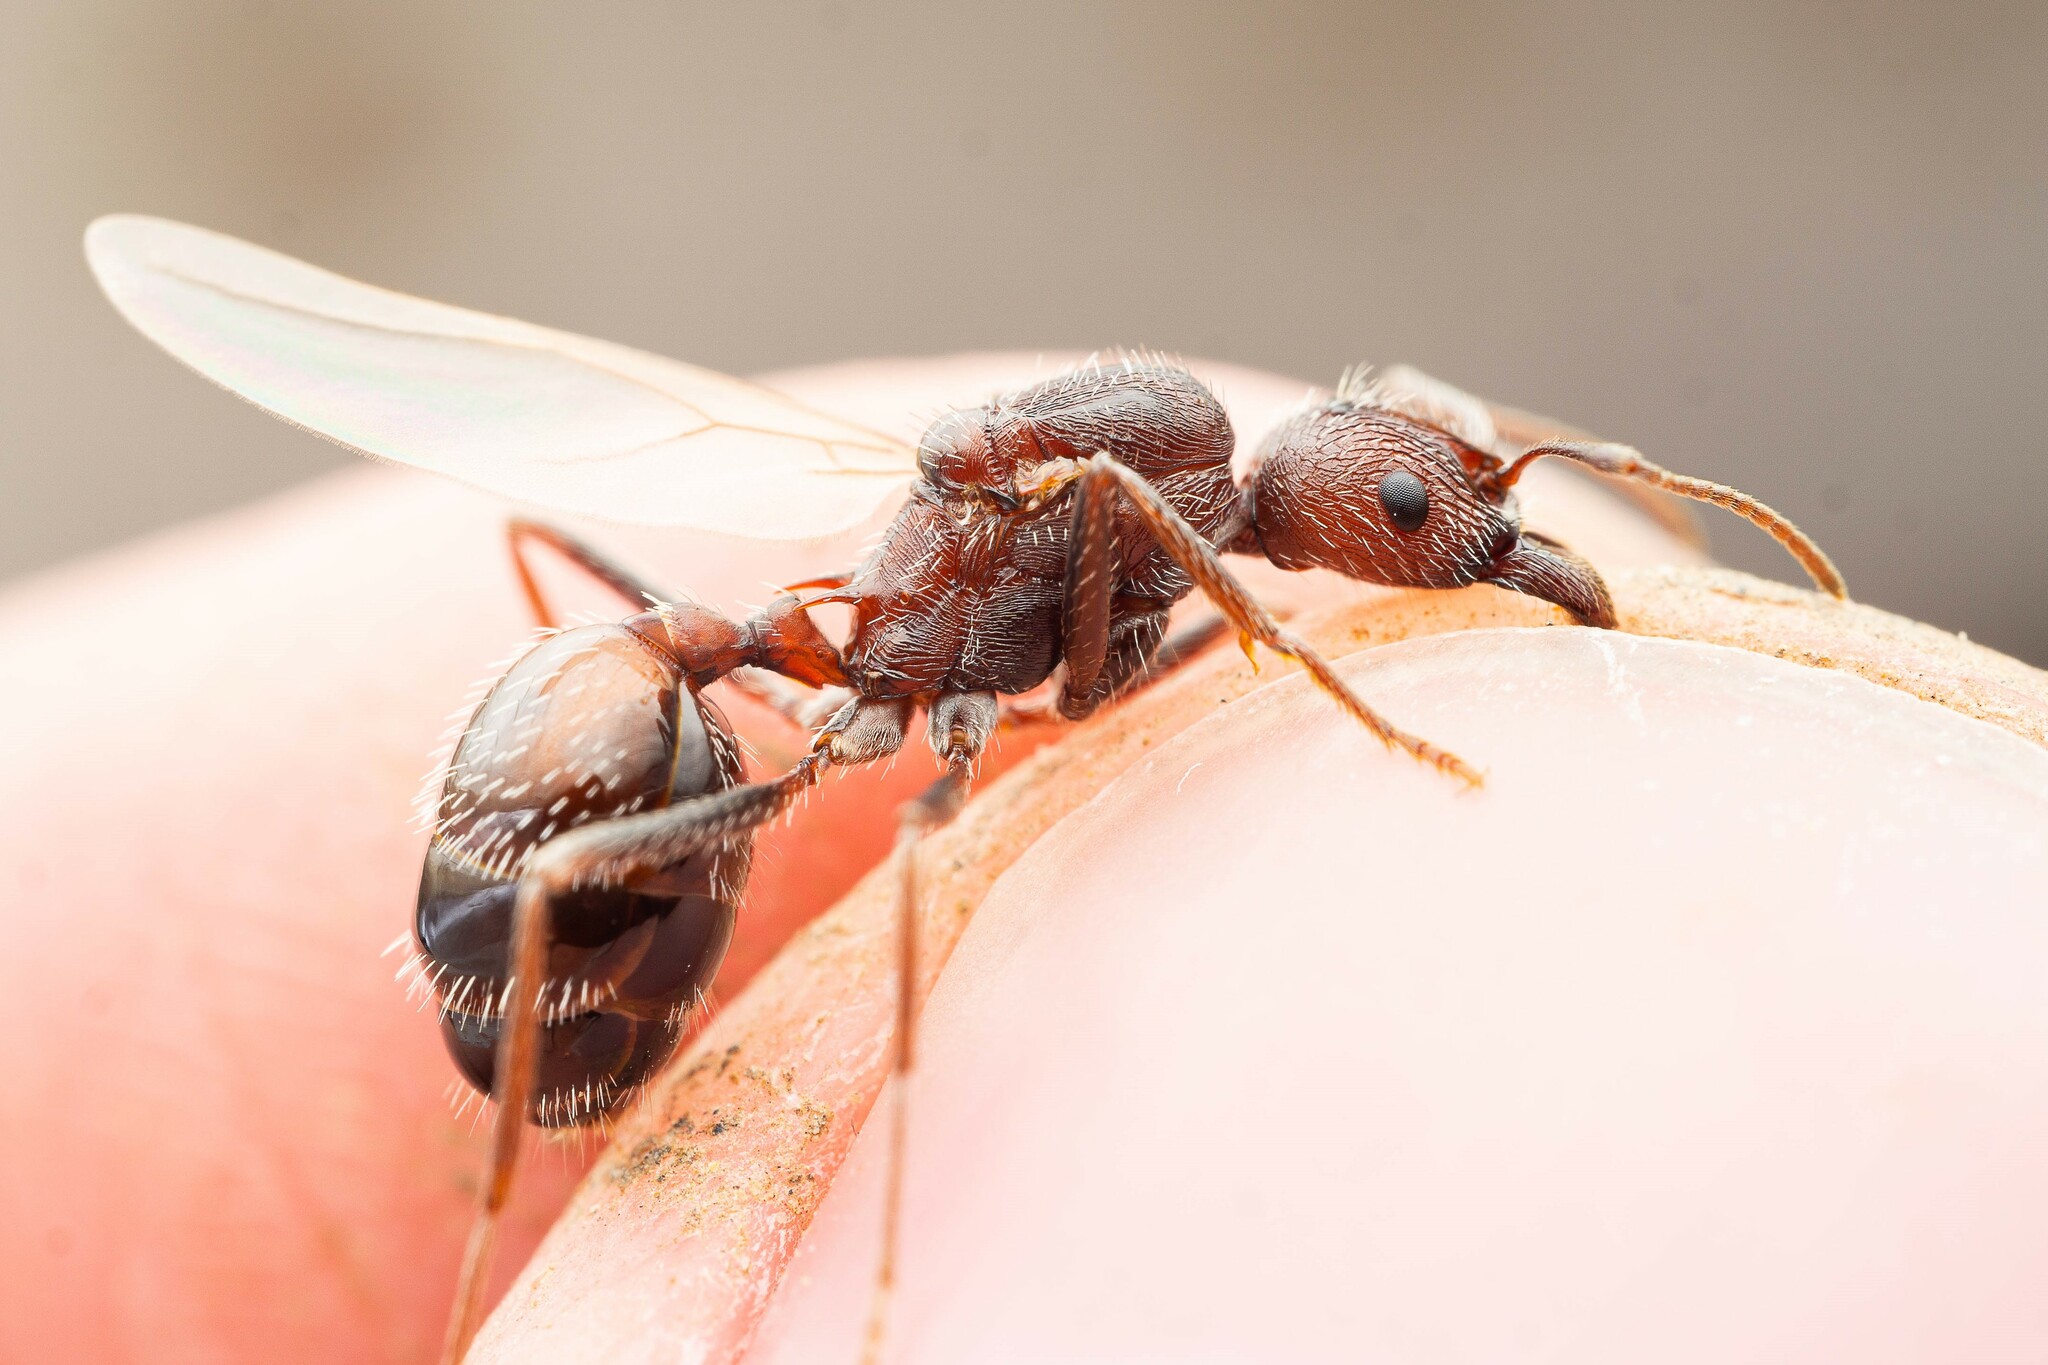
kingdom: Animalia
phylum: Arthropoda
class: Insecta
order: Hymenoptera
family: Formicidae
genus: Novomessor
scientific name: Novomessor albisetosa
